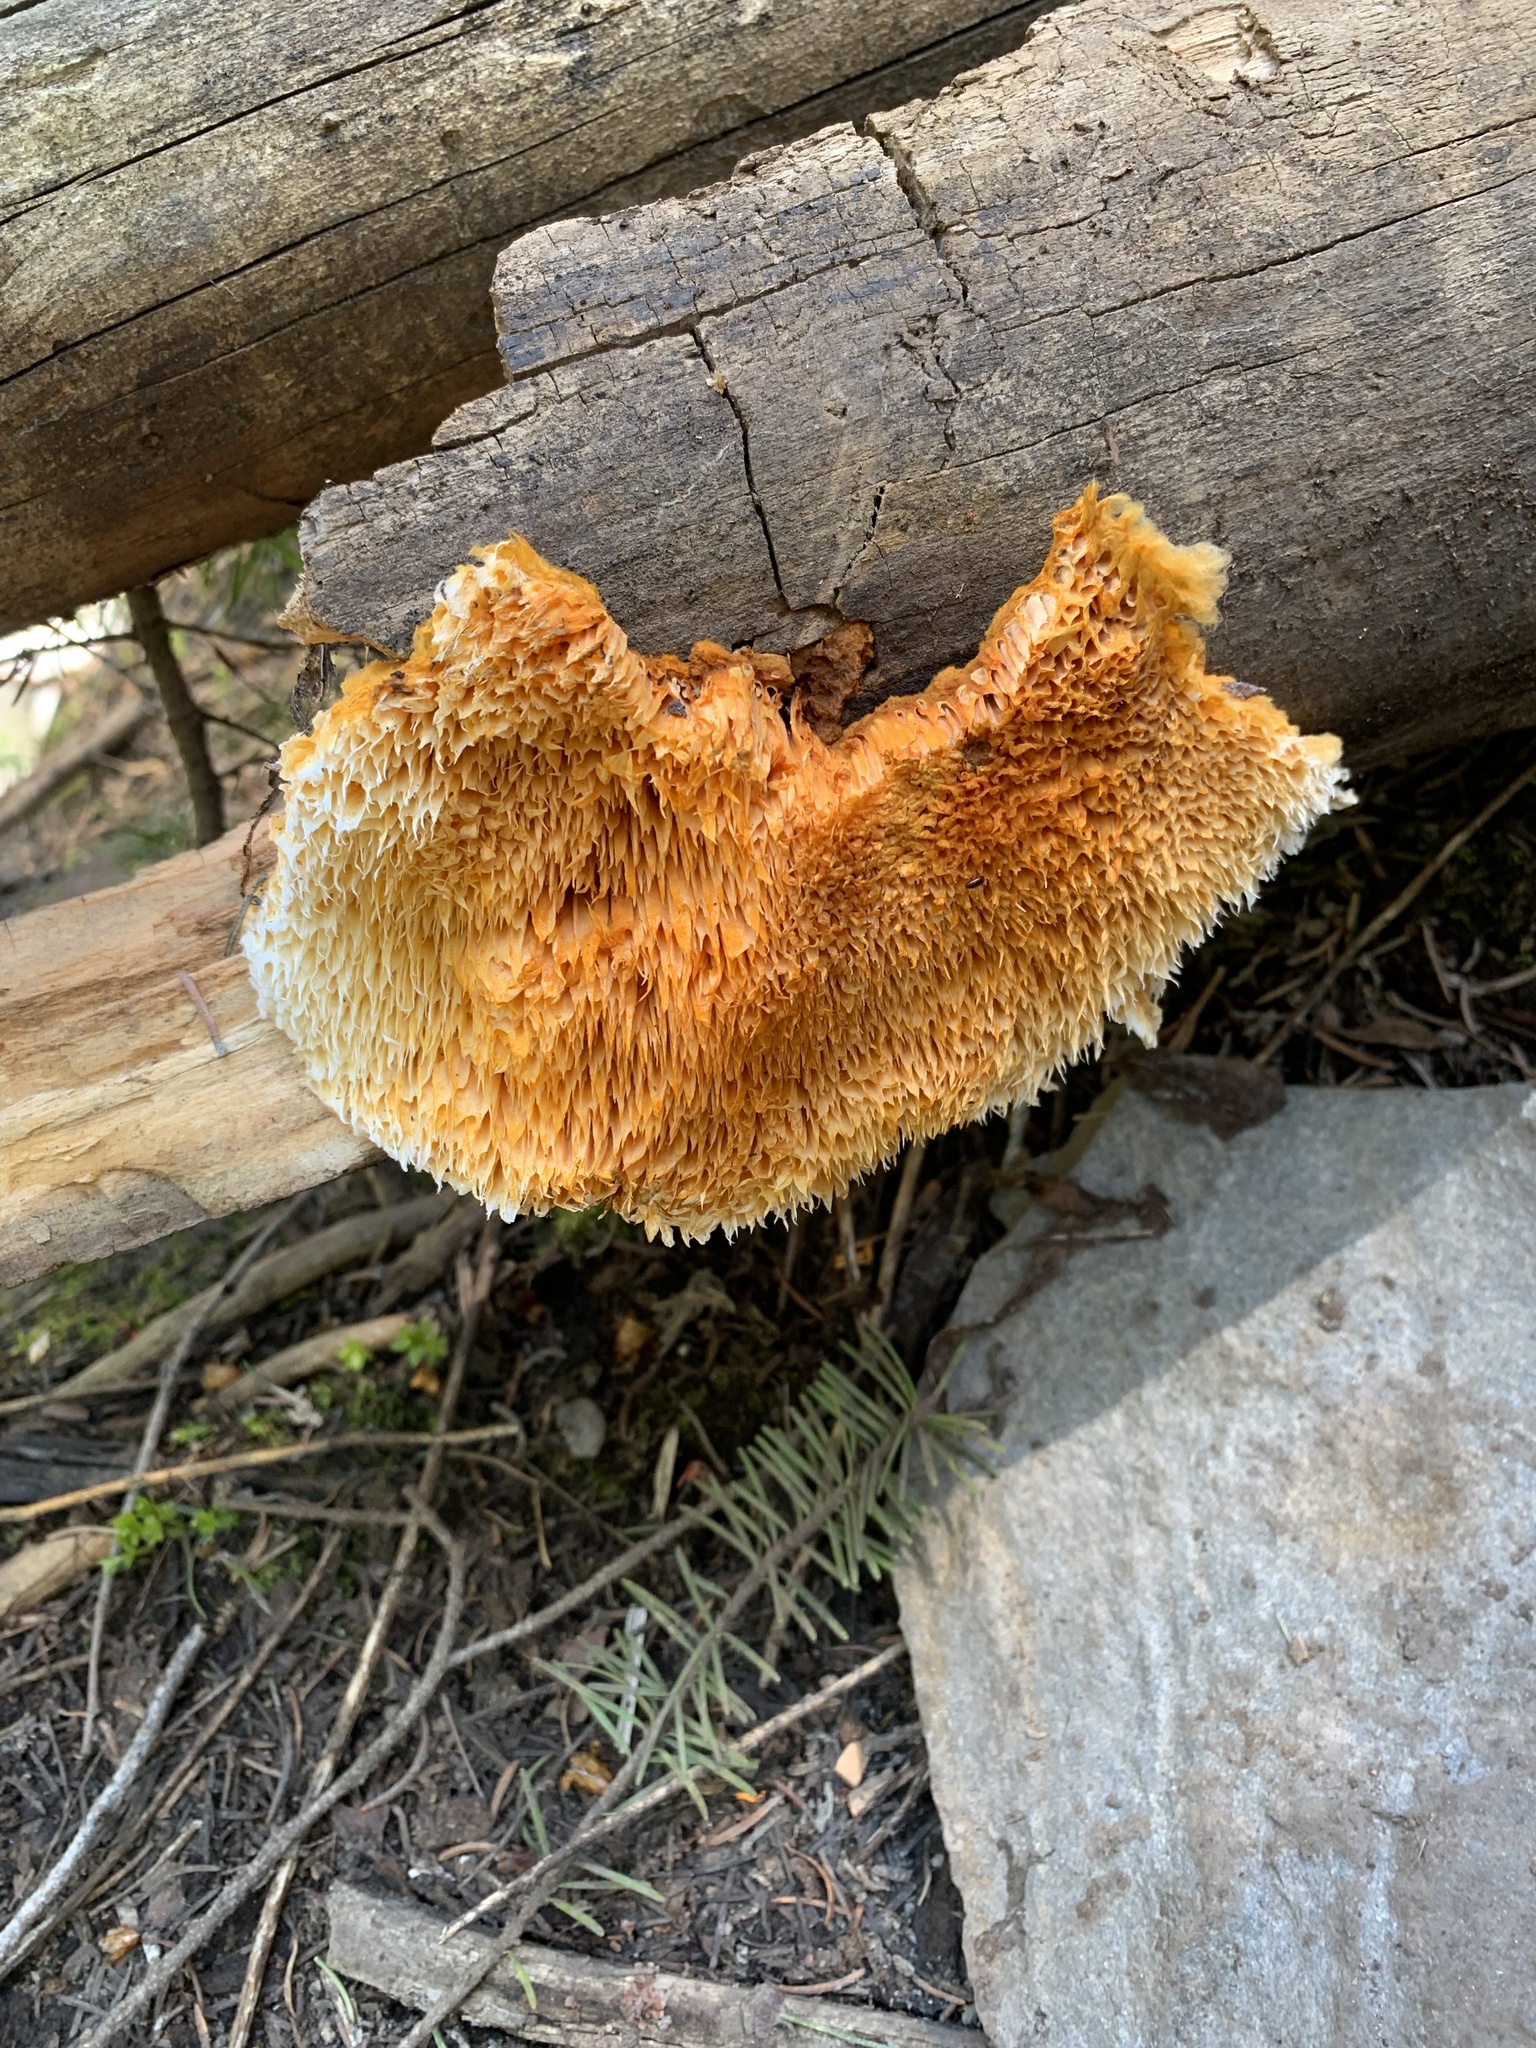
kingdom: Fungi
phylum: Basidiomycota
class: Agaricomycetes
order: Polyporales
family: Pycnoporellaceae
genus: Pycnoporellus
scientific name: Pycnoporellus alboluteus
